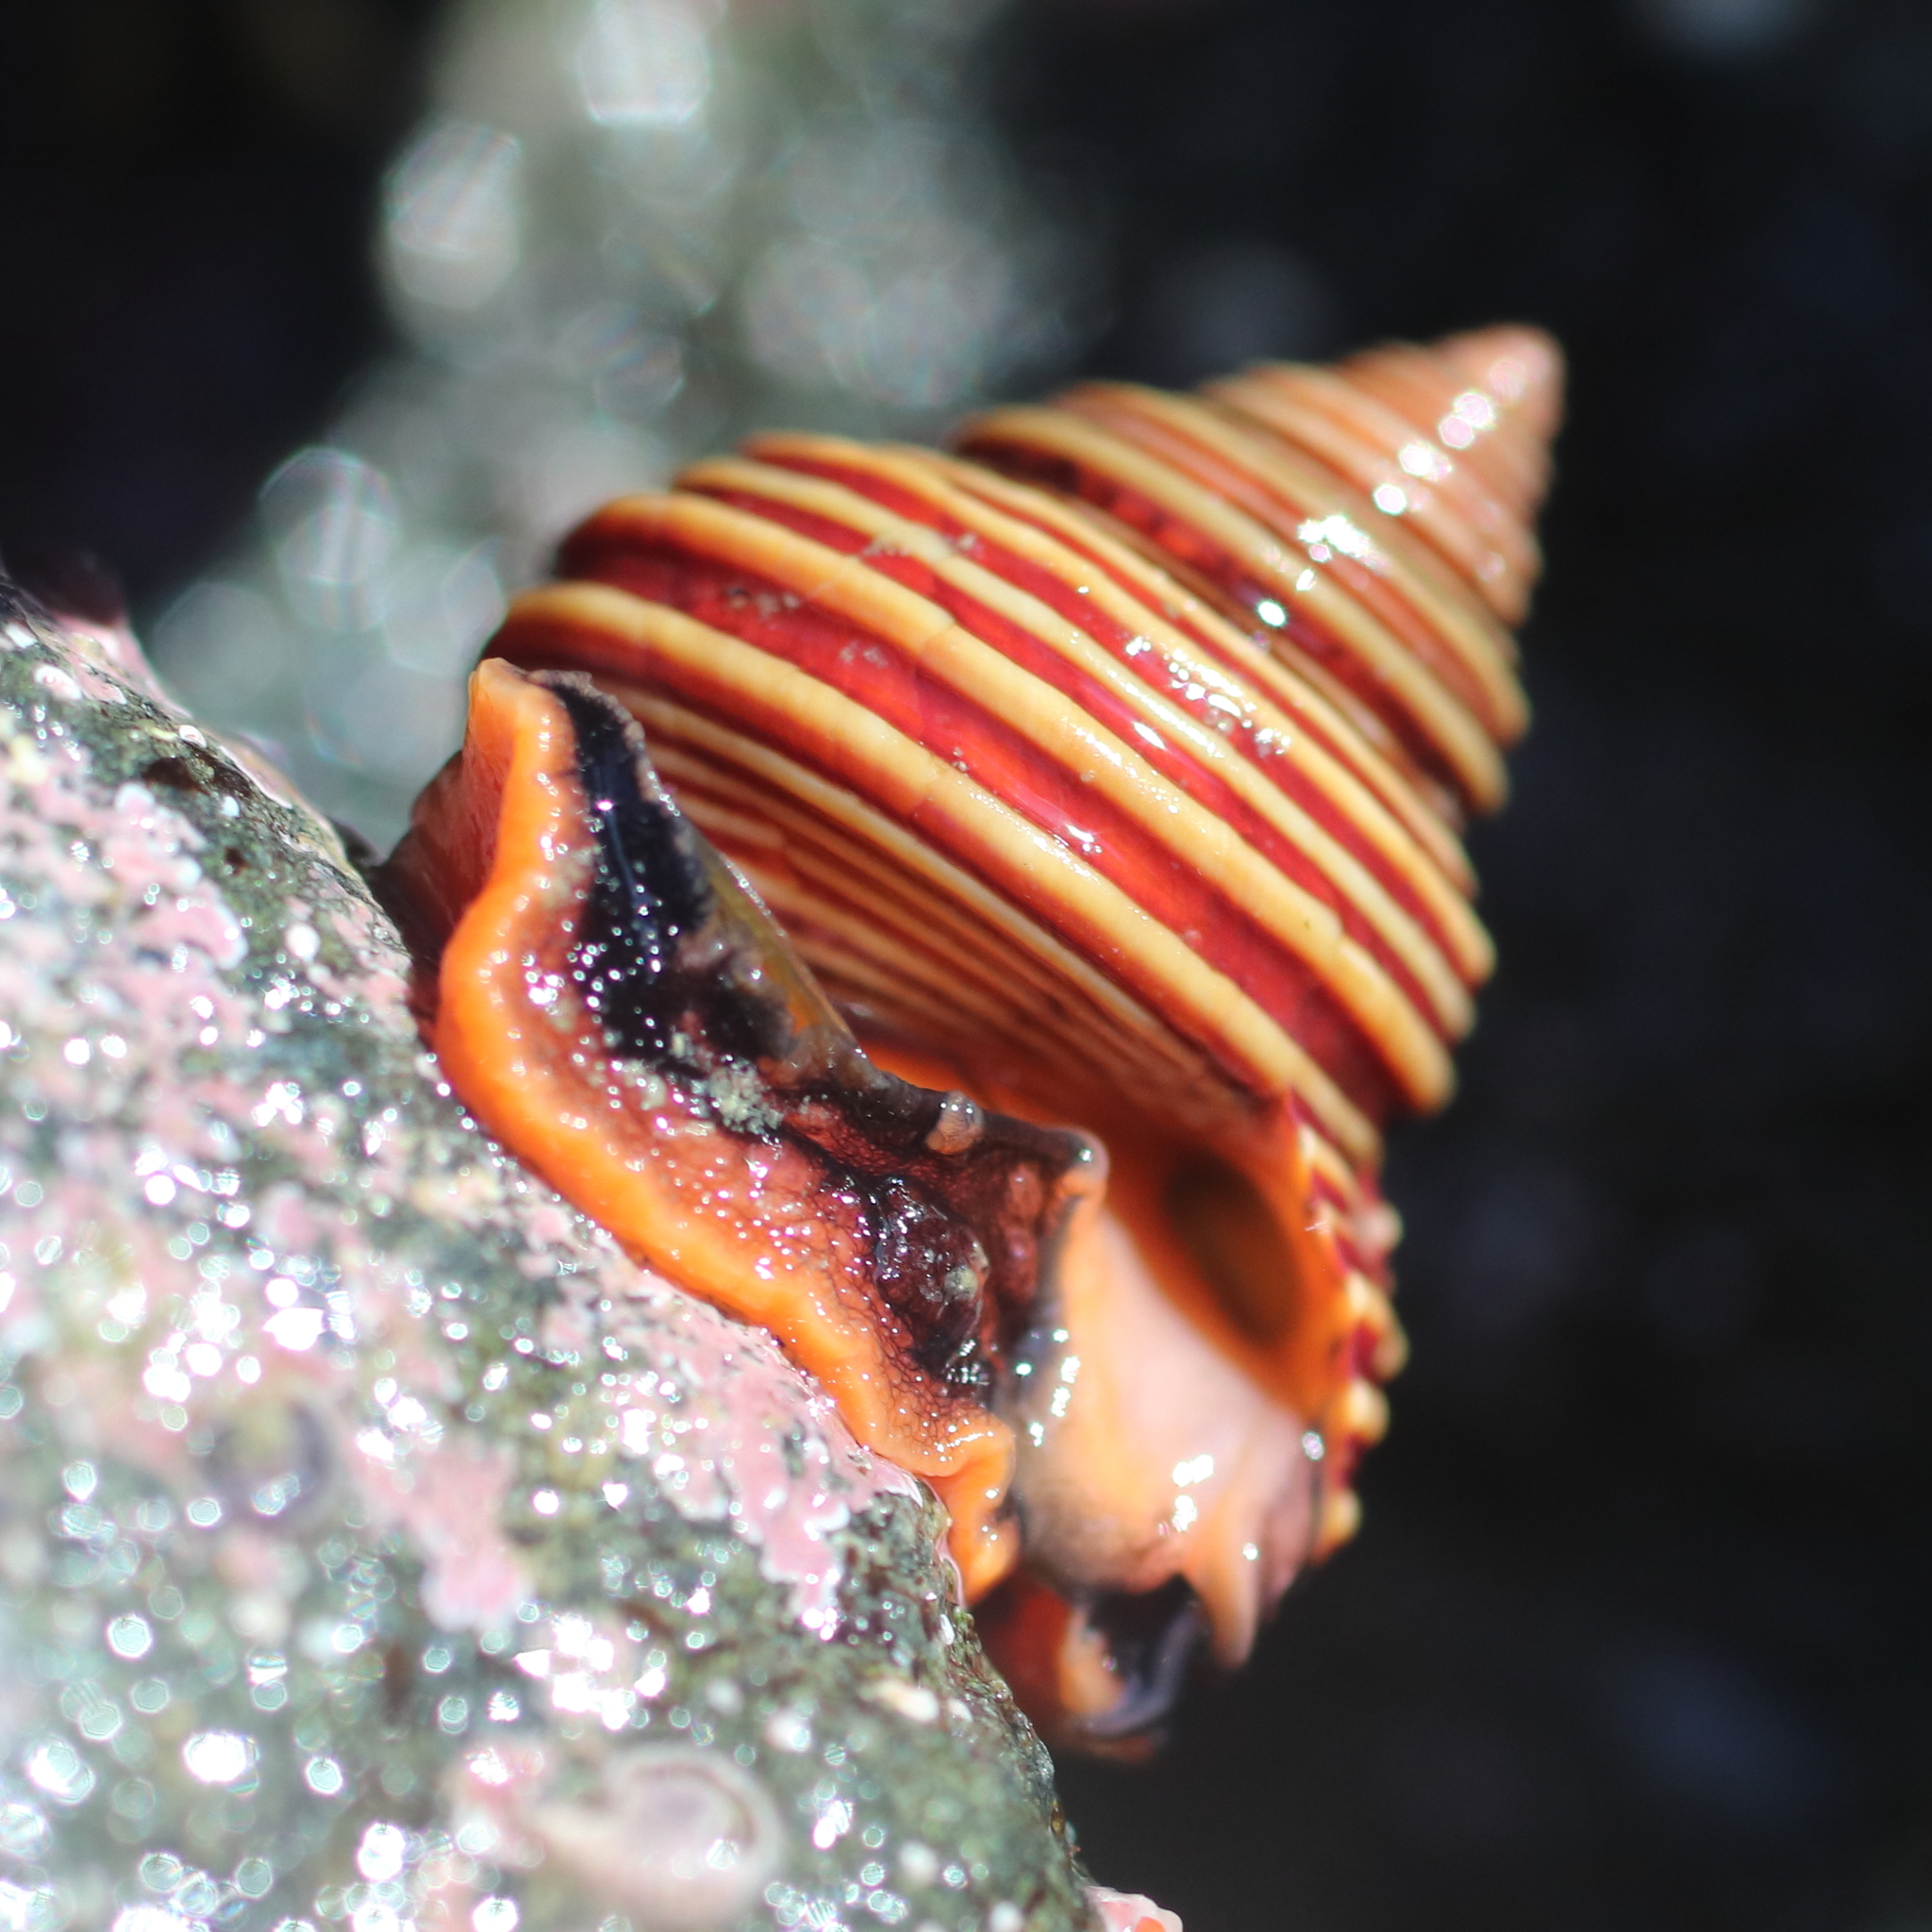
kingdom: Animalia
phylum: Mollusca
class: Gastropoda
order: Trochida
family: Calliostomatidae
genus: Calliostoma
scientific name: Calliostoma ligatum
